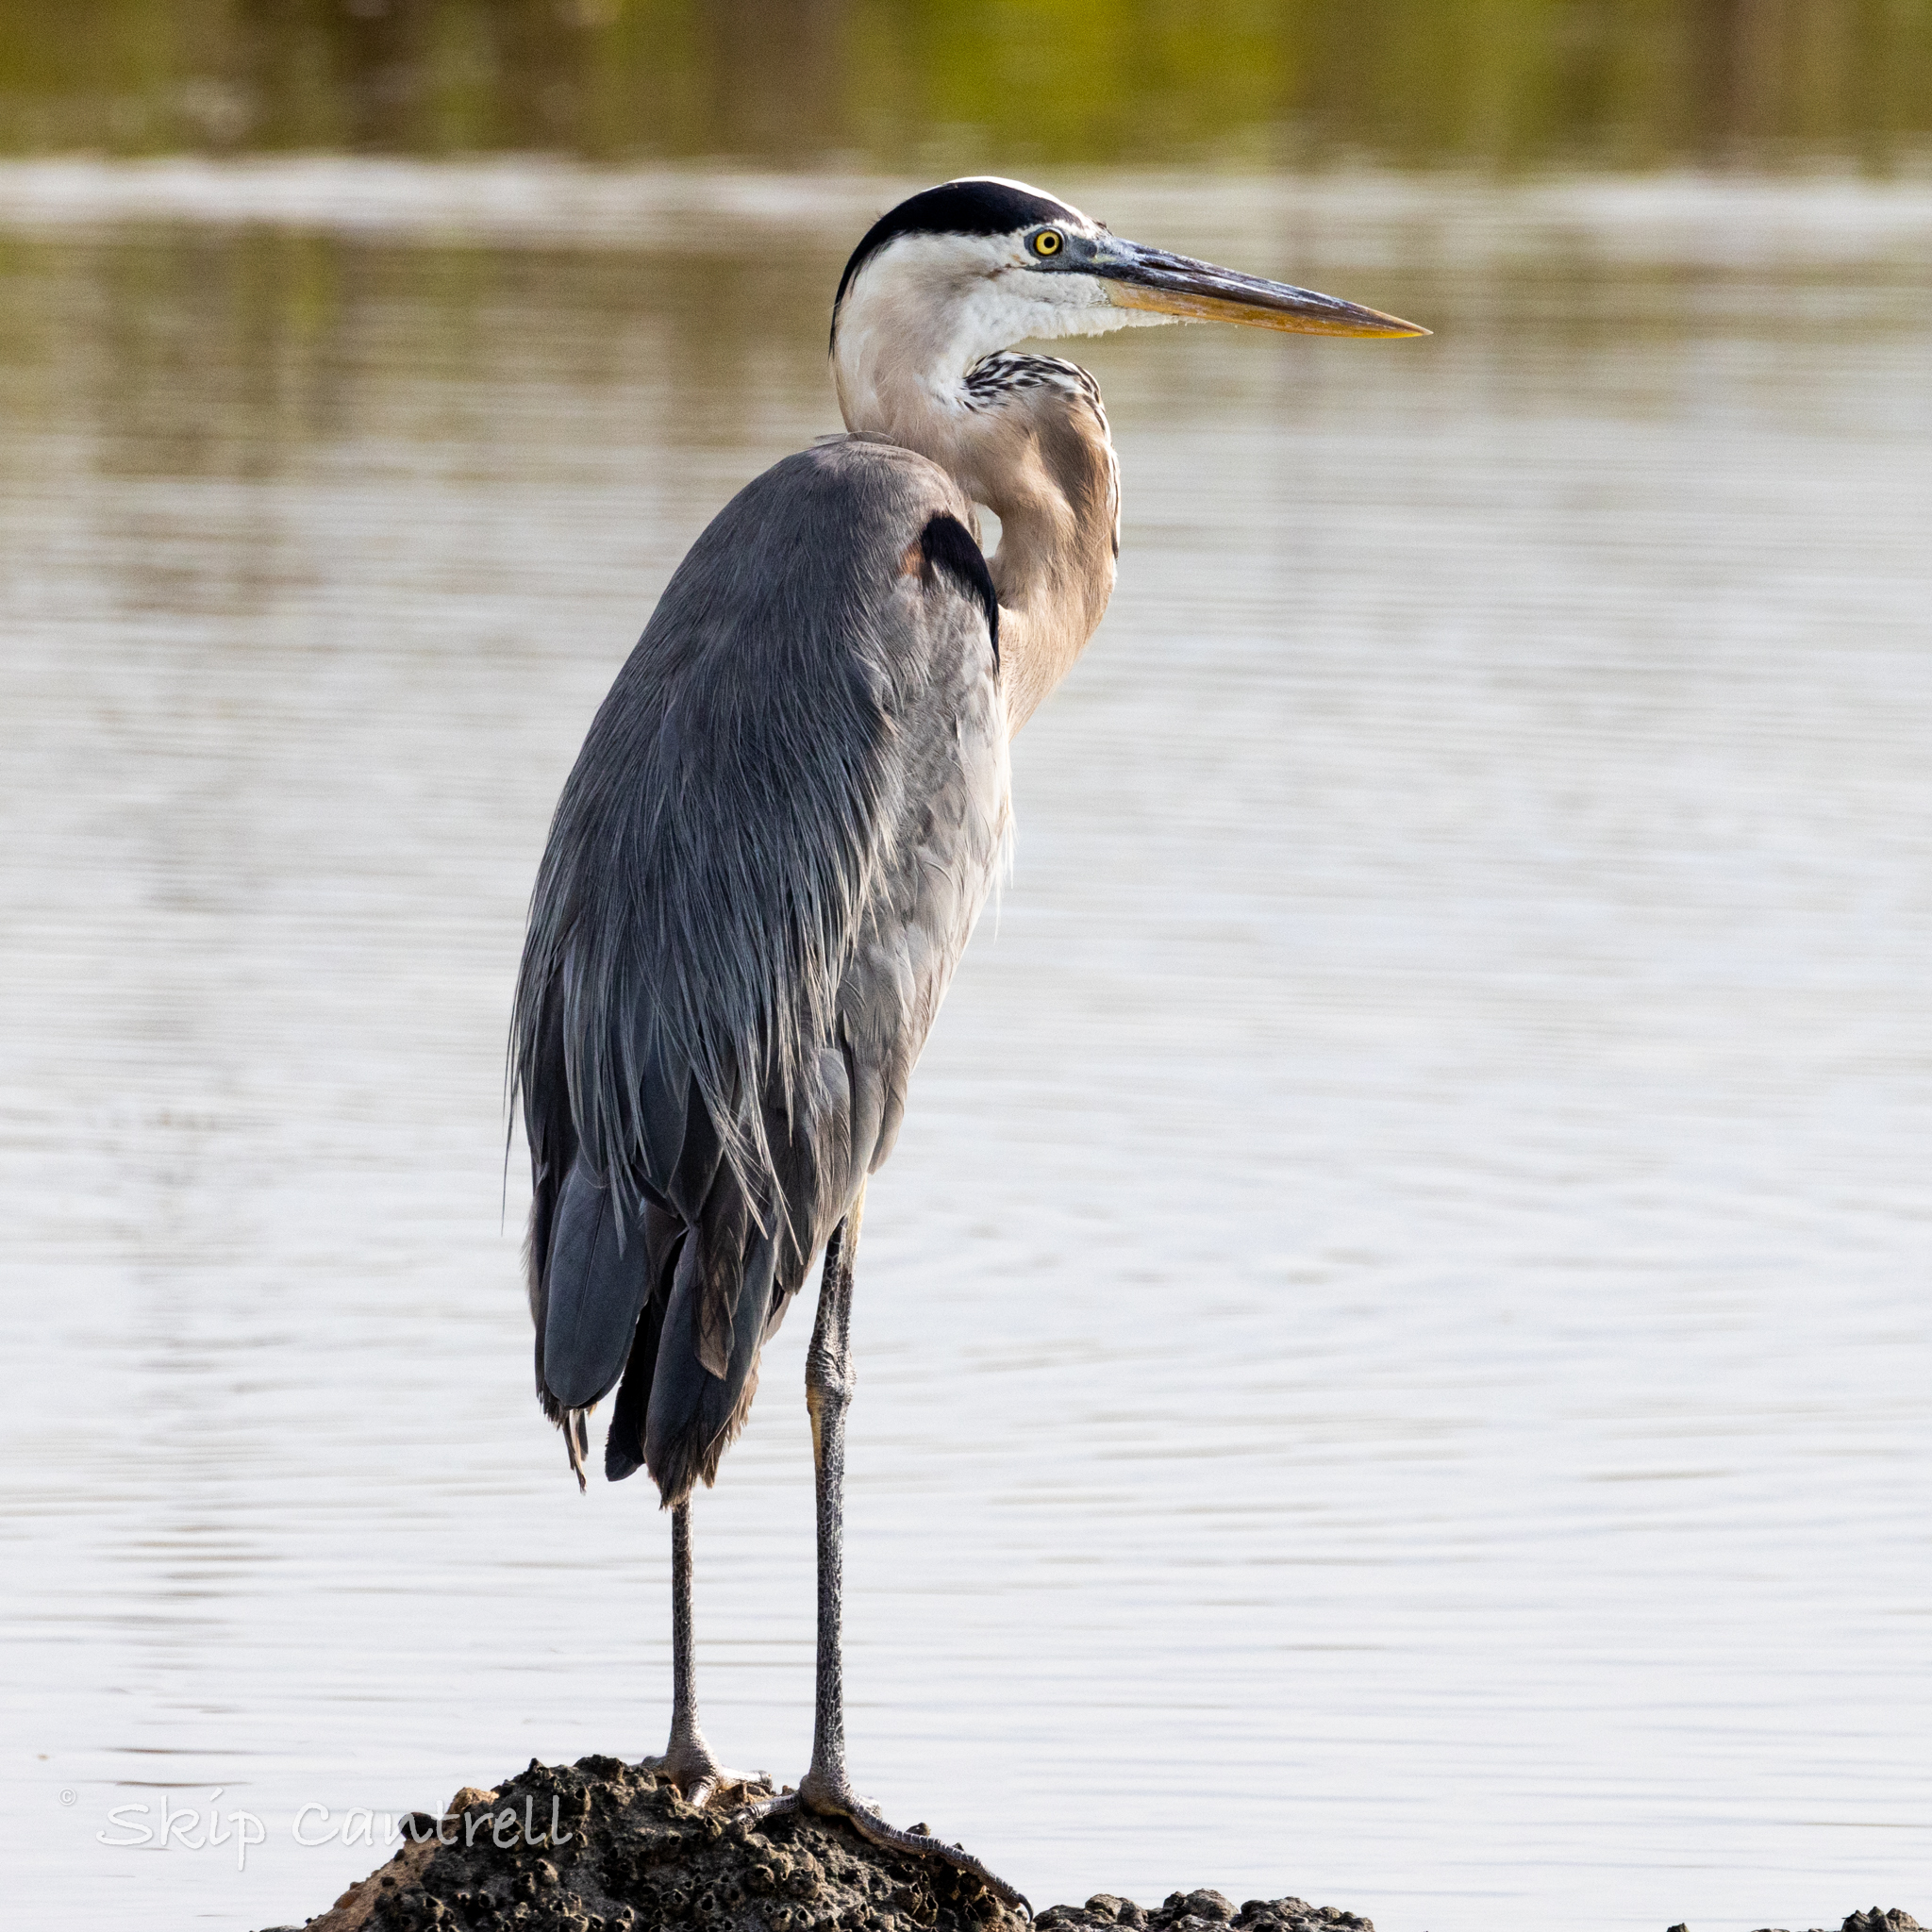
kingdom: Animalia
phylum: Chordata
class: Aves
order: Pelecaniformes
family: Ardeidae
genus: Ardea
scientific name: Ardea herodias
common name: Great blue heron
